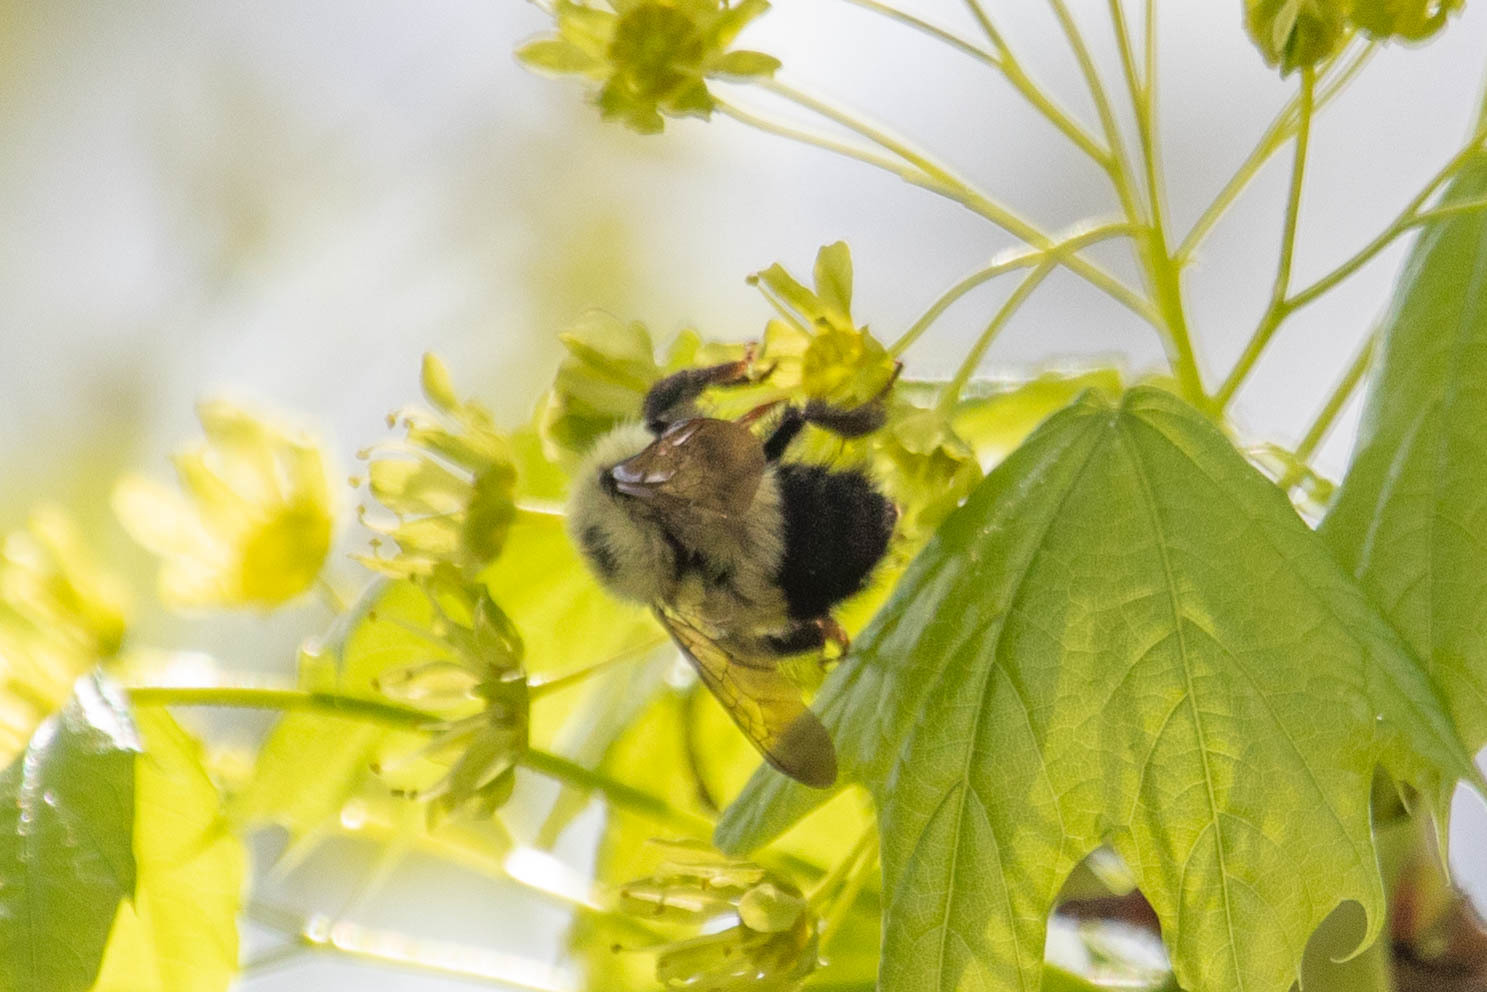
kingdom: Animalia
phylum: Arthropoda
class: Insecta
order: Hymenoptera
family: Apidae
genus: Bombus
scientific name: Bombus vagans
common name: Half-black bumble bee
